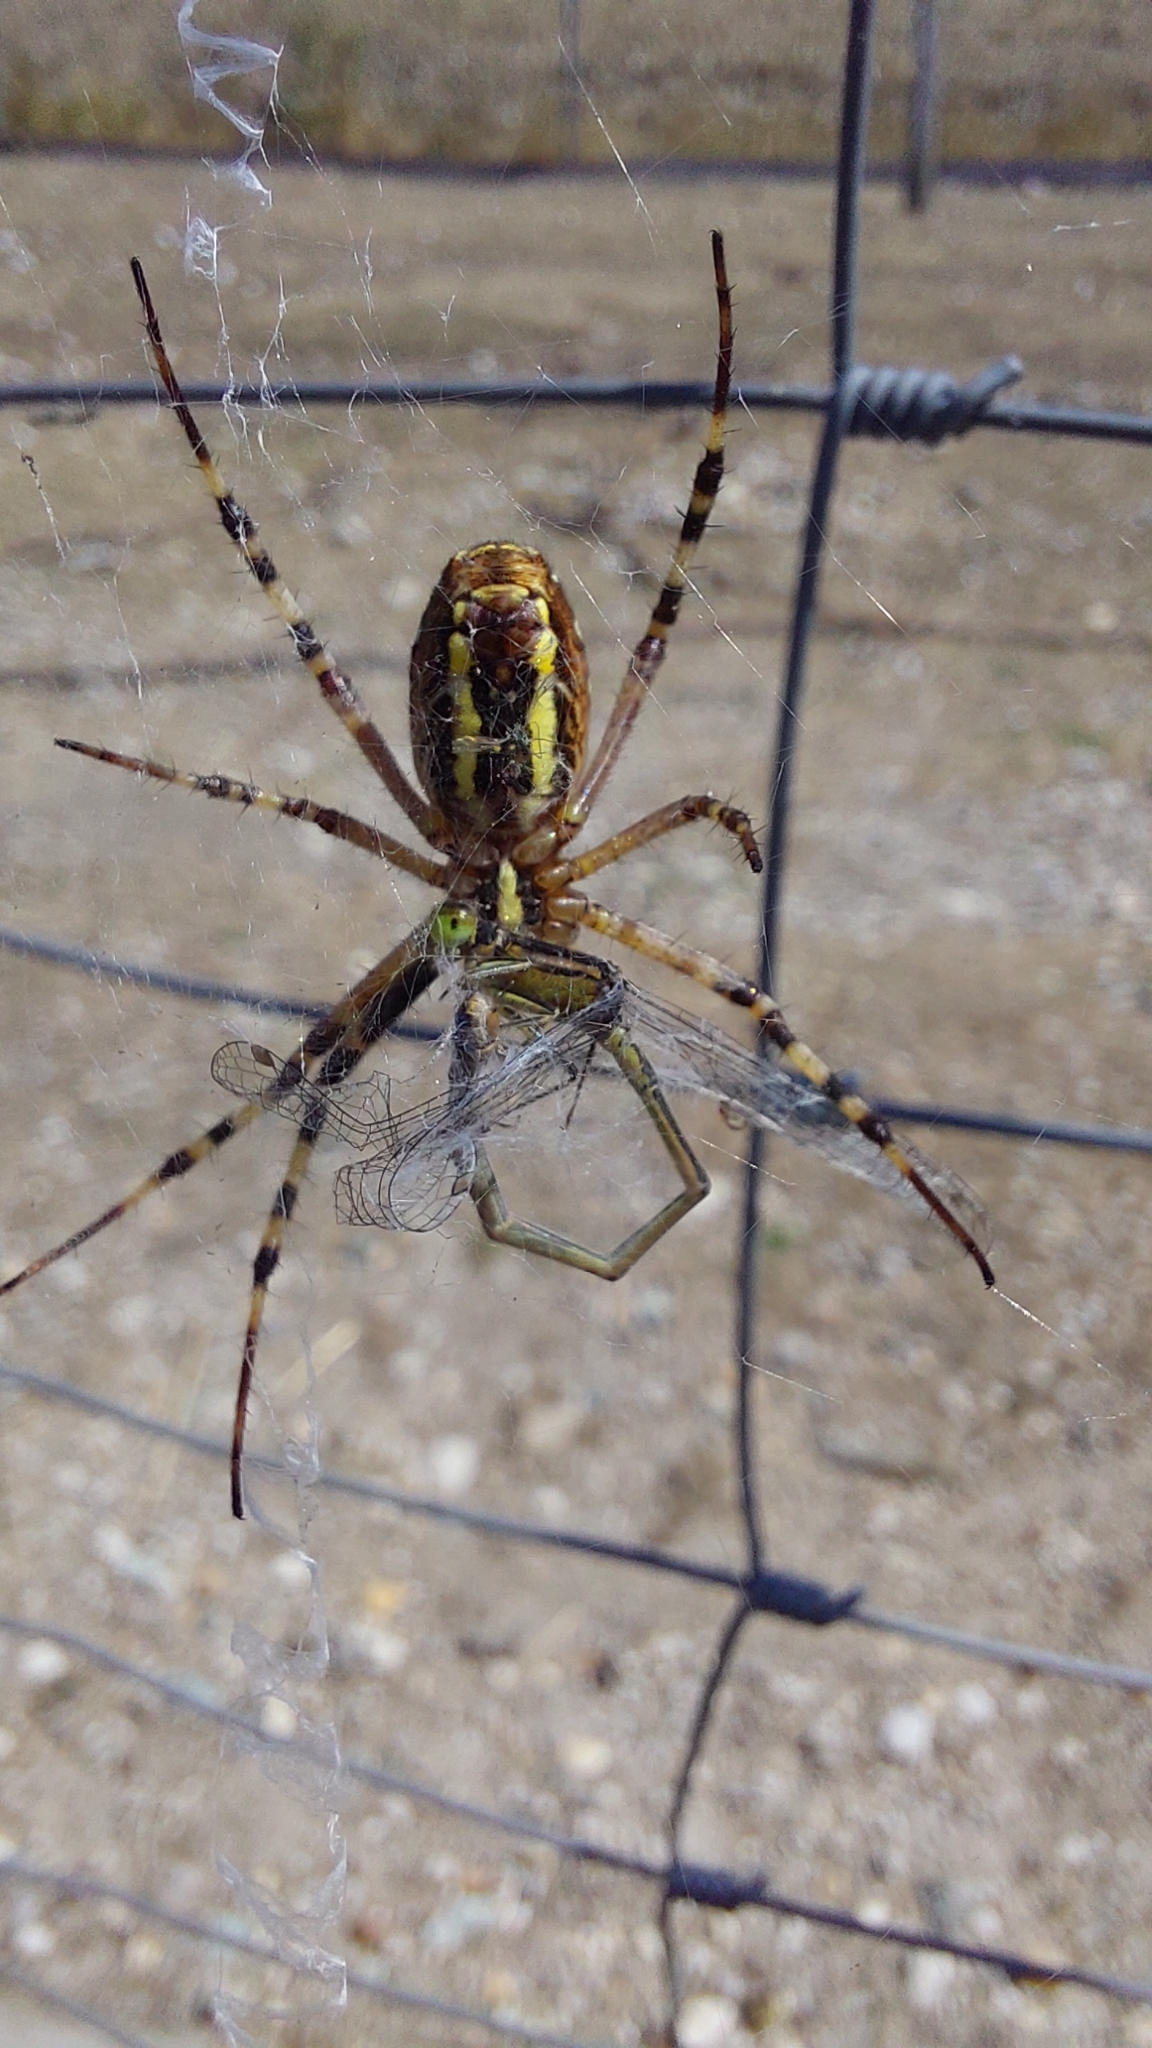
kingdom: Animalia
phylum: Arthropoda
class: Arachnida
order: Araneae
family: Araneidae
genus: Argiope
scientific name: Argiope bruennichi
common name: Wasp spider
